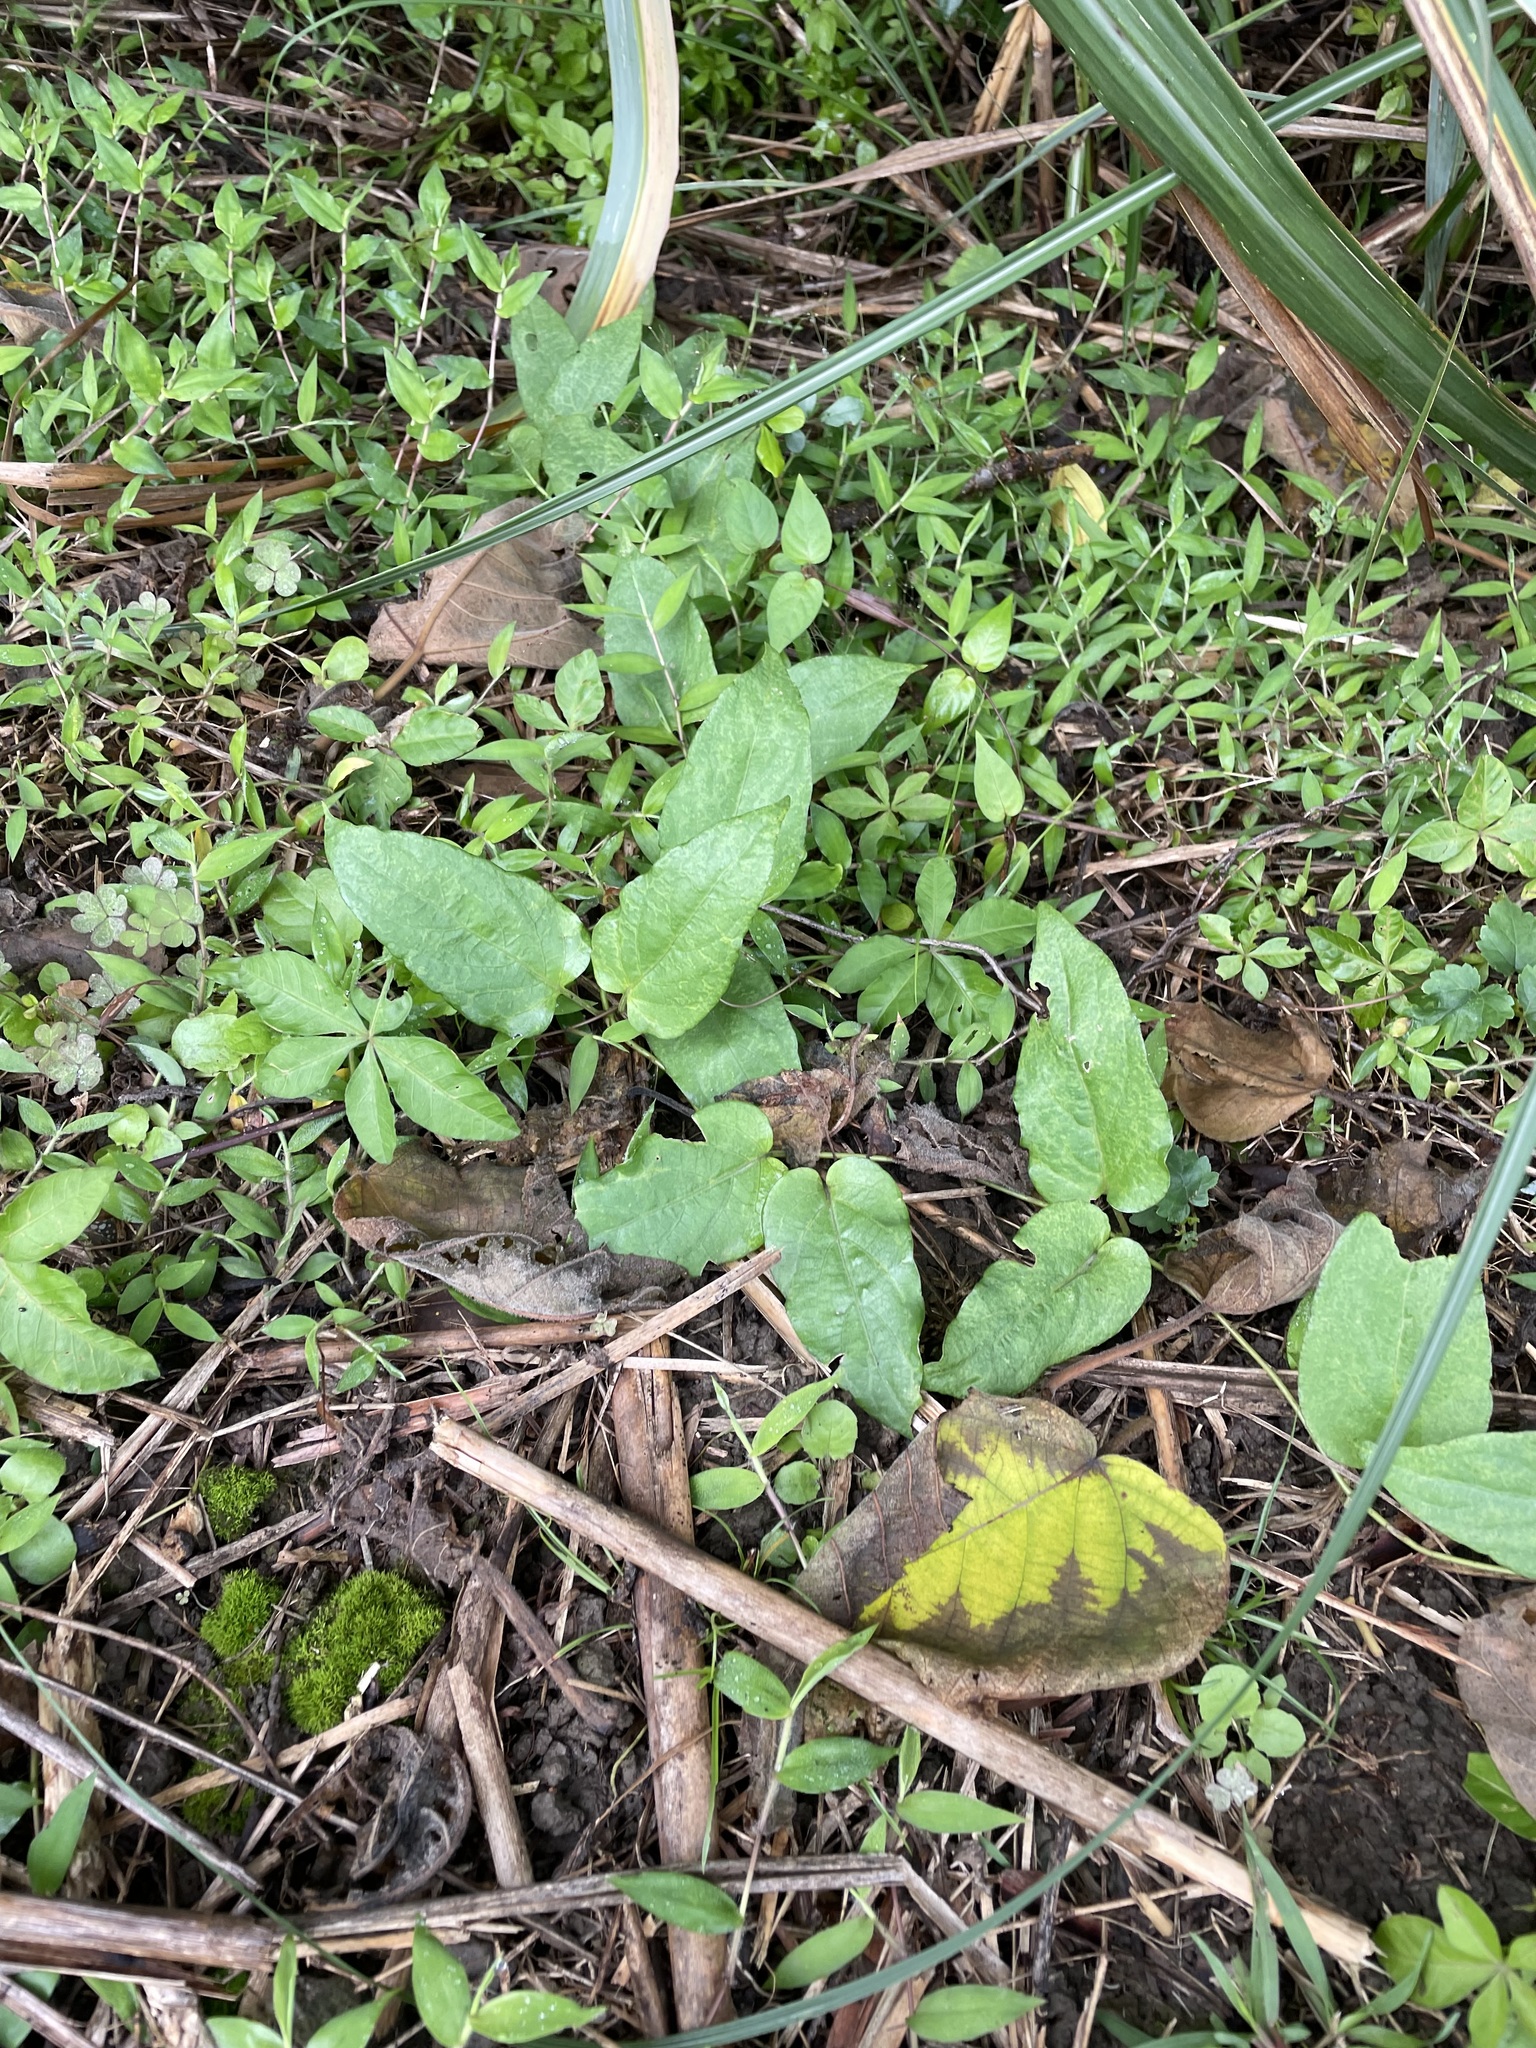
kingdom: Plantae
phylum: Tracheophyta
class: Magnoliopsida
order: Gentianales
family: Rubiaceae
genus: Paederia
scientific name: Paederia foetida
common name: Stinkvine
